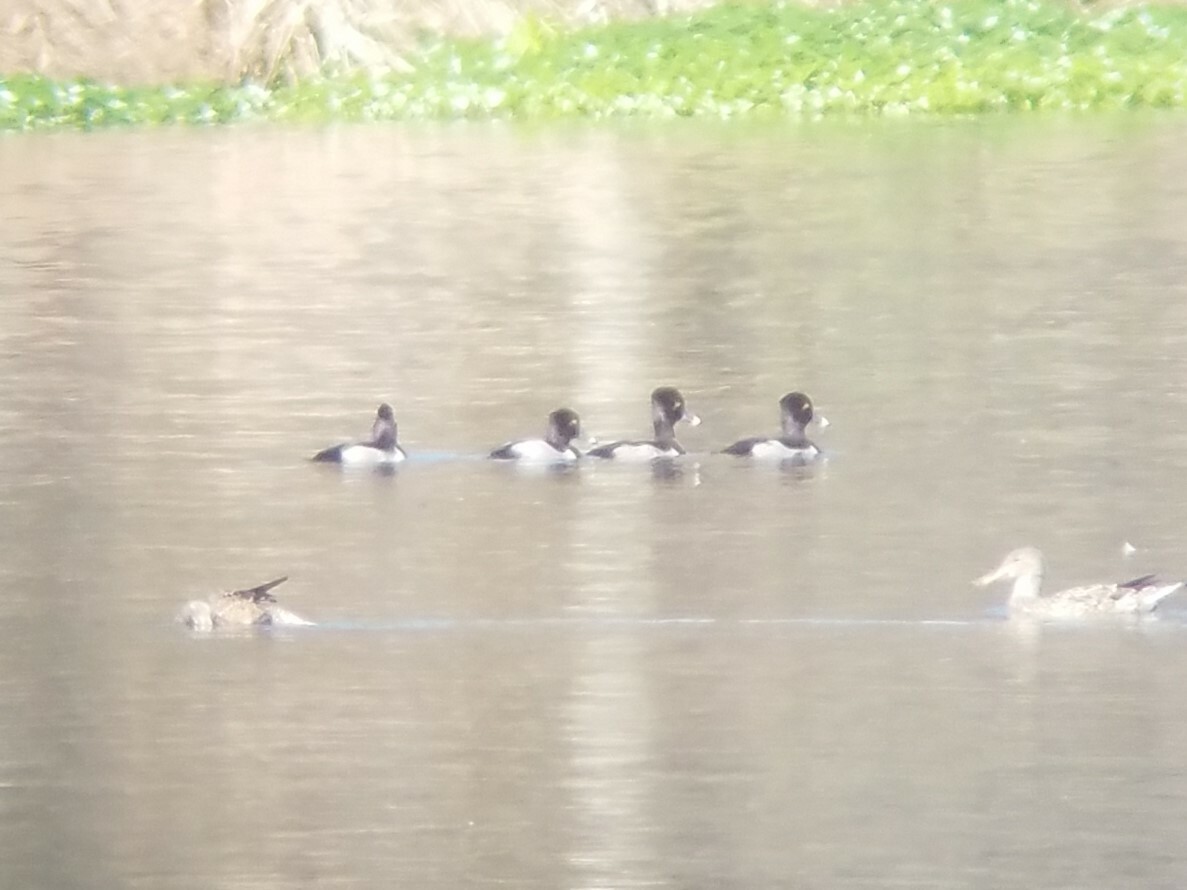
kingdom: Animalia
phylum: Chordata
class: Aves
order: Anseriformes
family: Anatidae
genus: Aythya
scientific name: Aythya collaris
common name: Ring-necked duck
